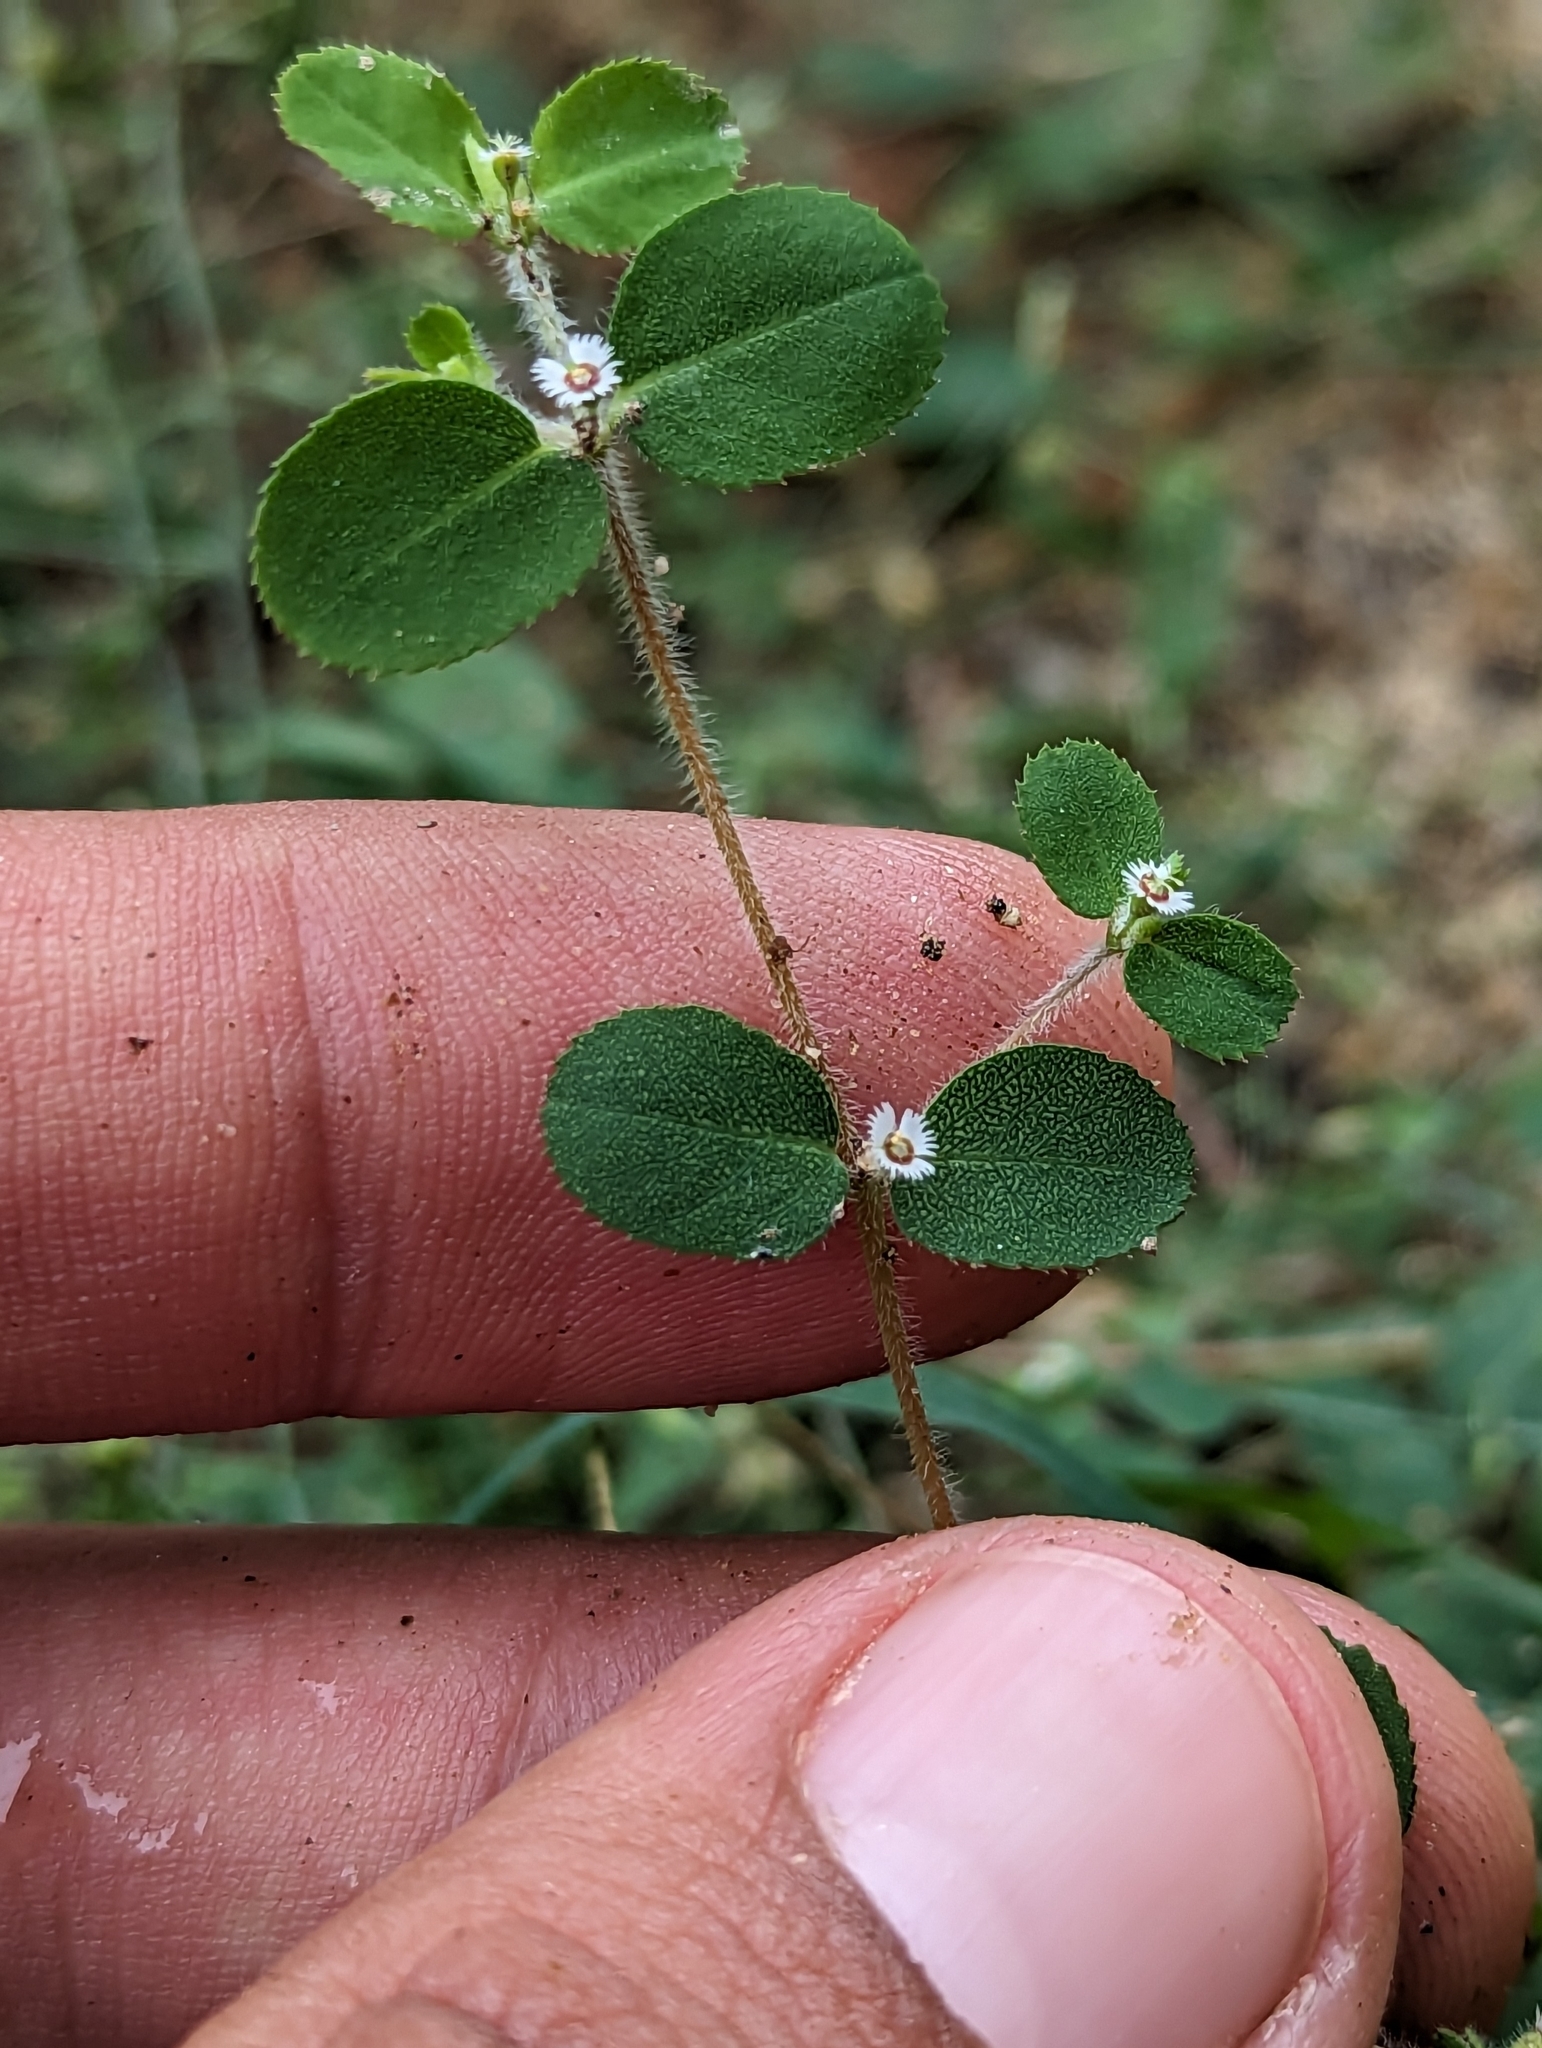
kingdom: Plantae
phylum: Tracheophyta
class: Magnoliopsida
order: Malpighiales
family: Euphorbiaceae
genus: Euphorbia
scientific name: Euphorbia dentosa
